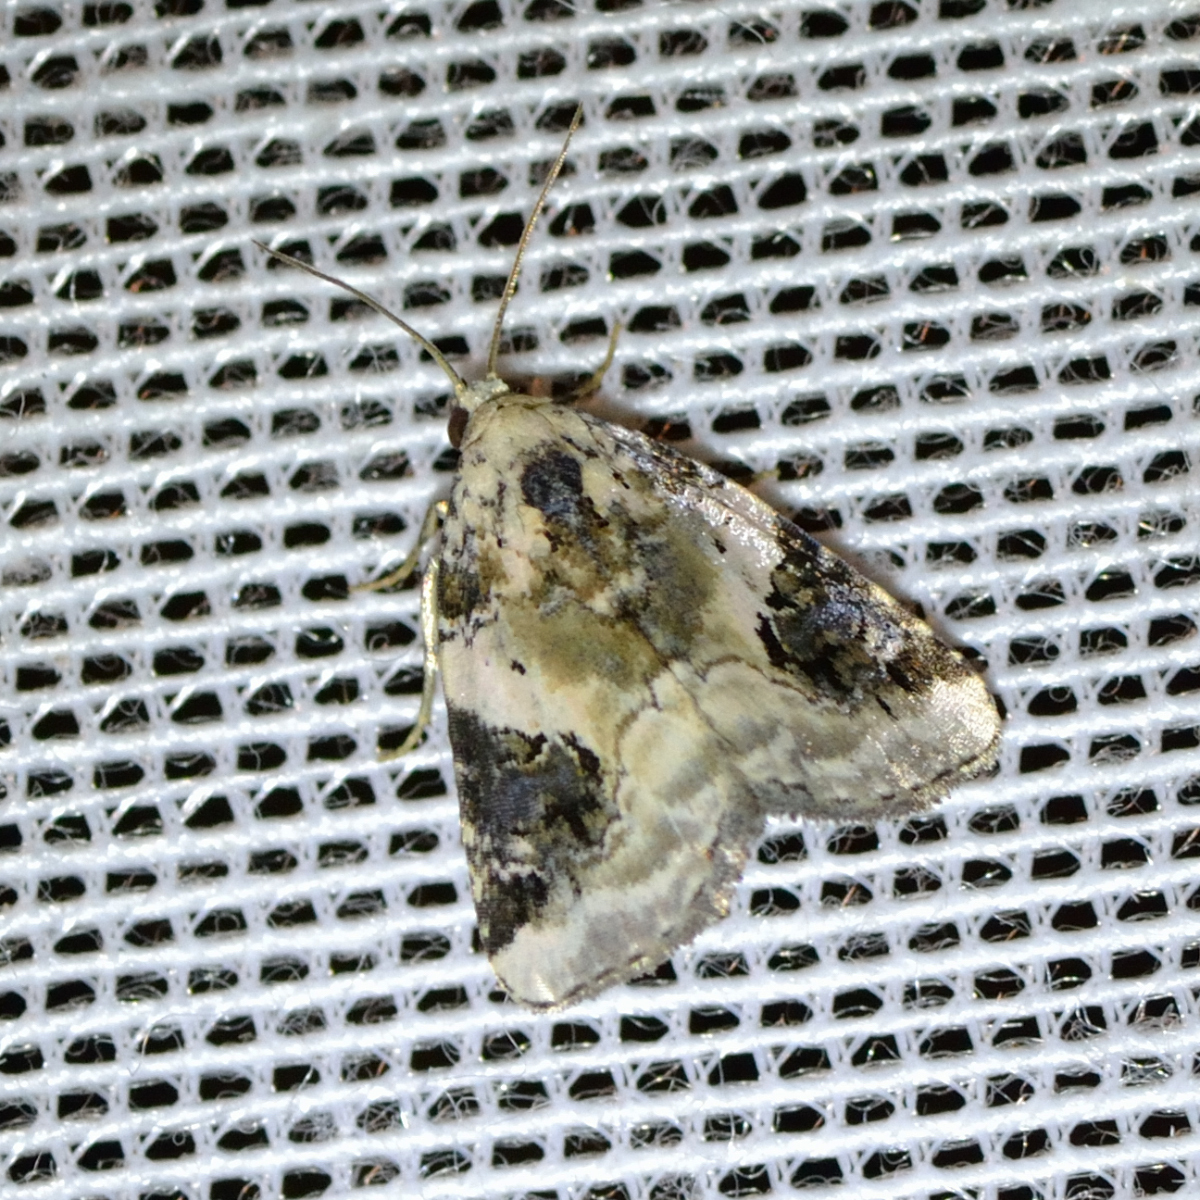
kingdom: Animalia
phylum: Arthropoda
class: Insecta
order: Lepidoptera
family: Noctuidae
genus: Pseudeustrotia
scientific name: Pseudeustrotia candidula
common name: Shining marbled
